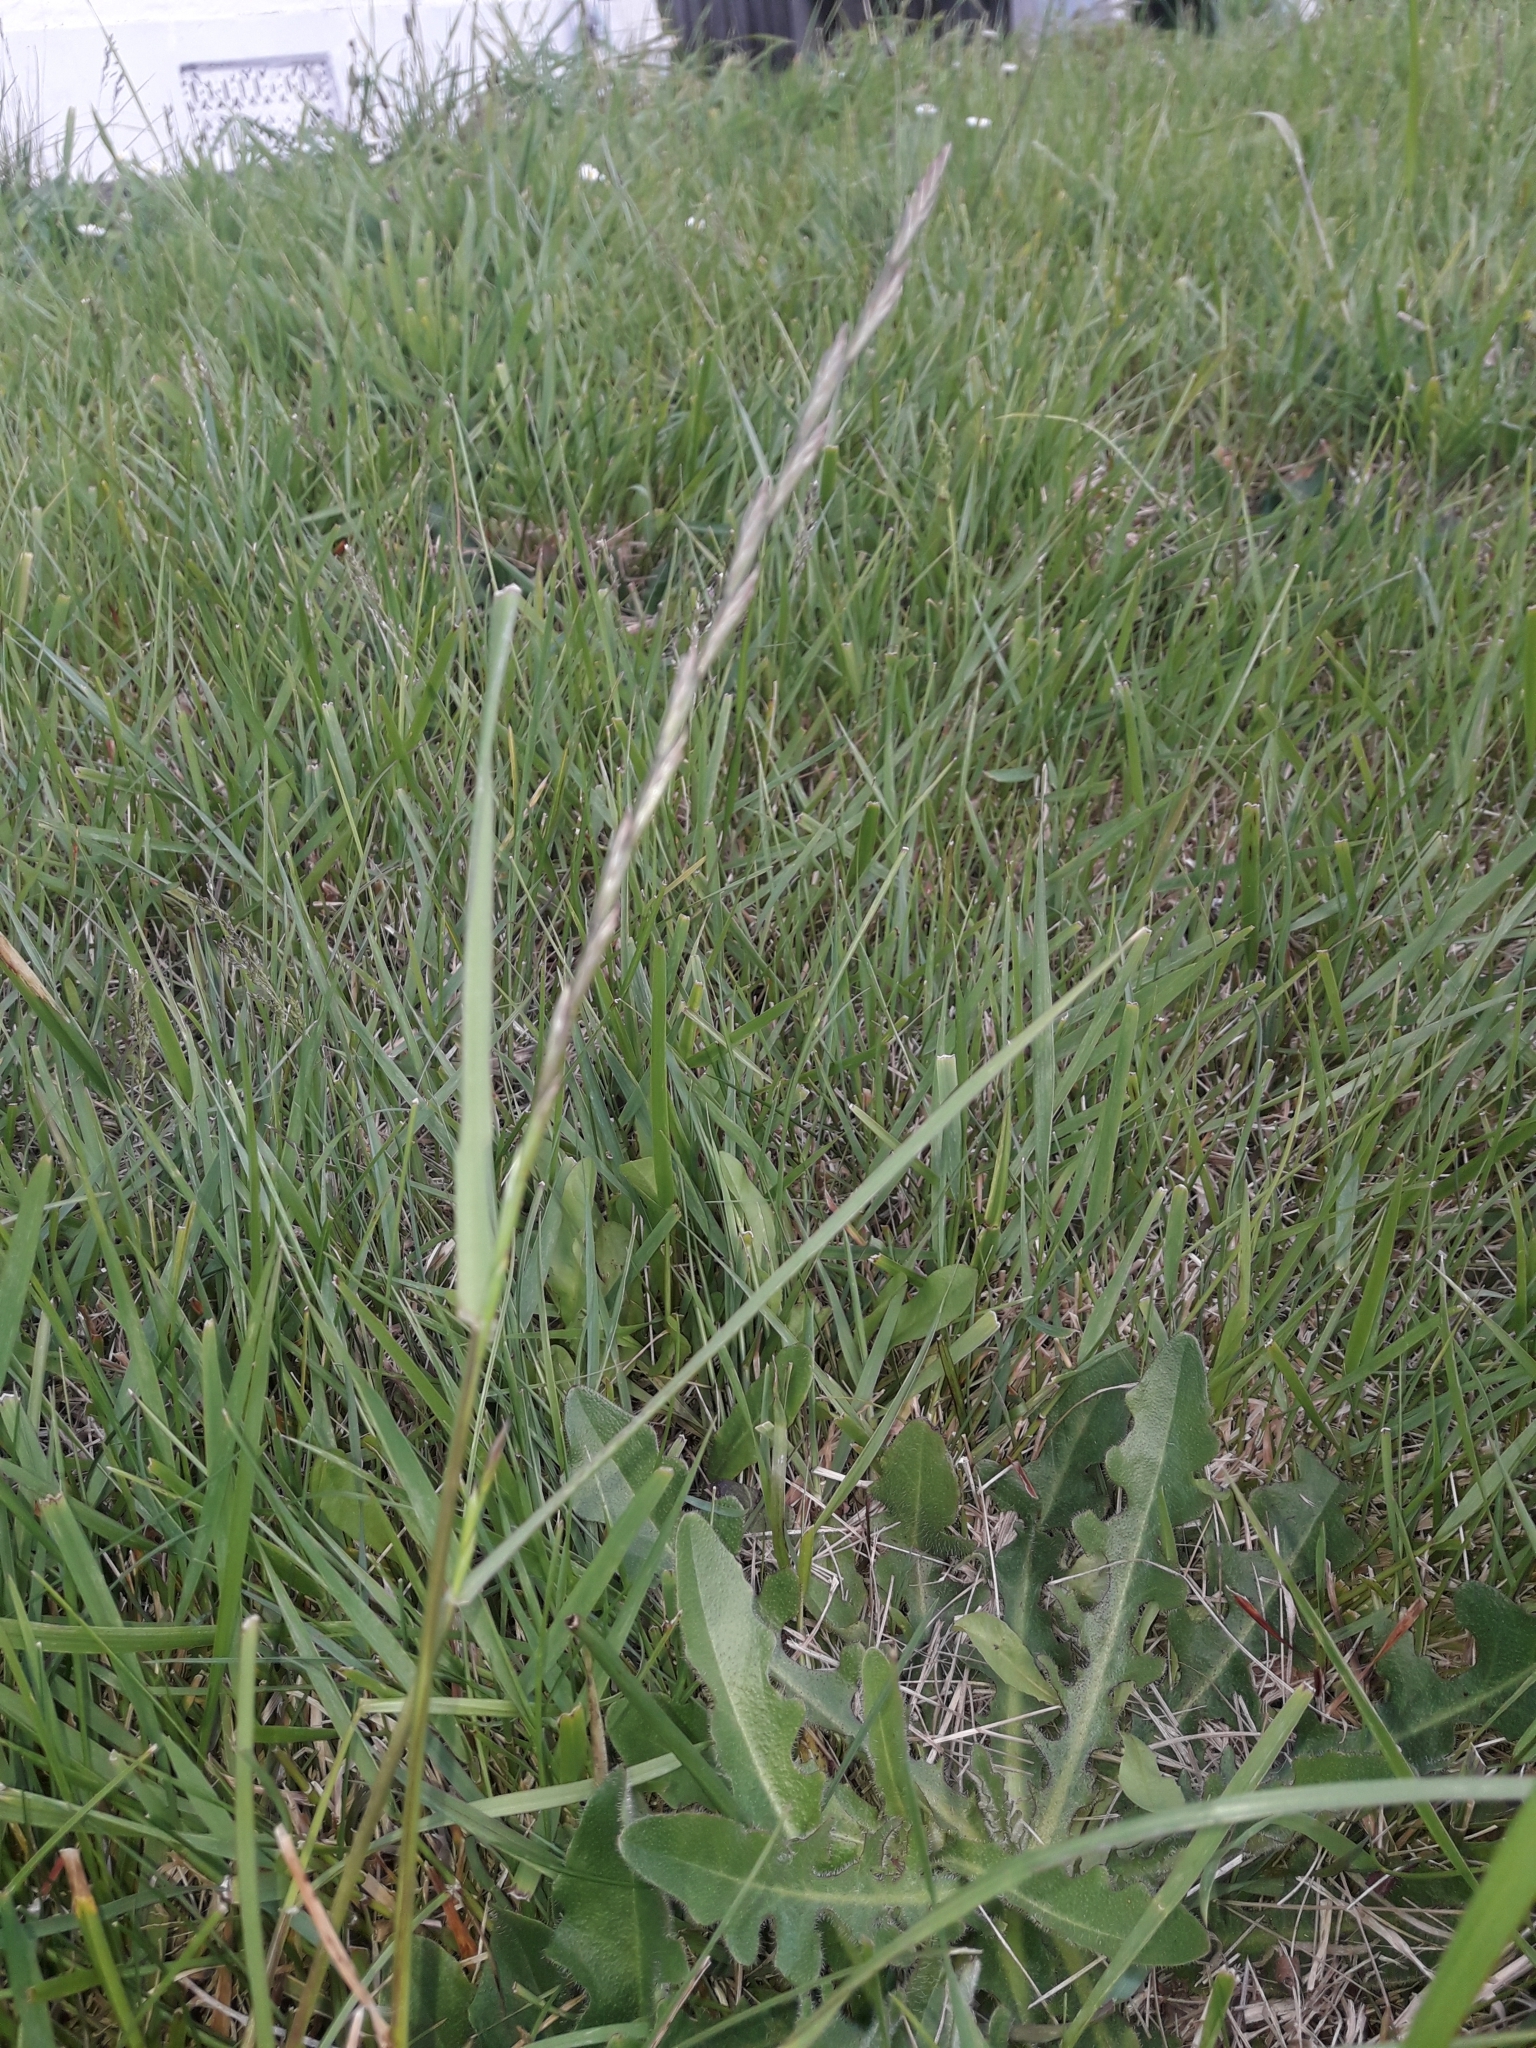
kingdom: Plantae
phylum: Tracheophyta
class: Liliopsida
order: Poales
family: Poaceae
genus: Lolium
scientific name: Lolium perenne
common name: Perennial ryegrass
